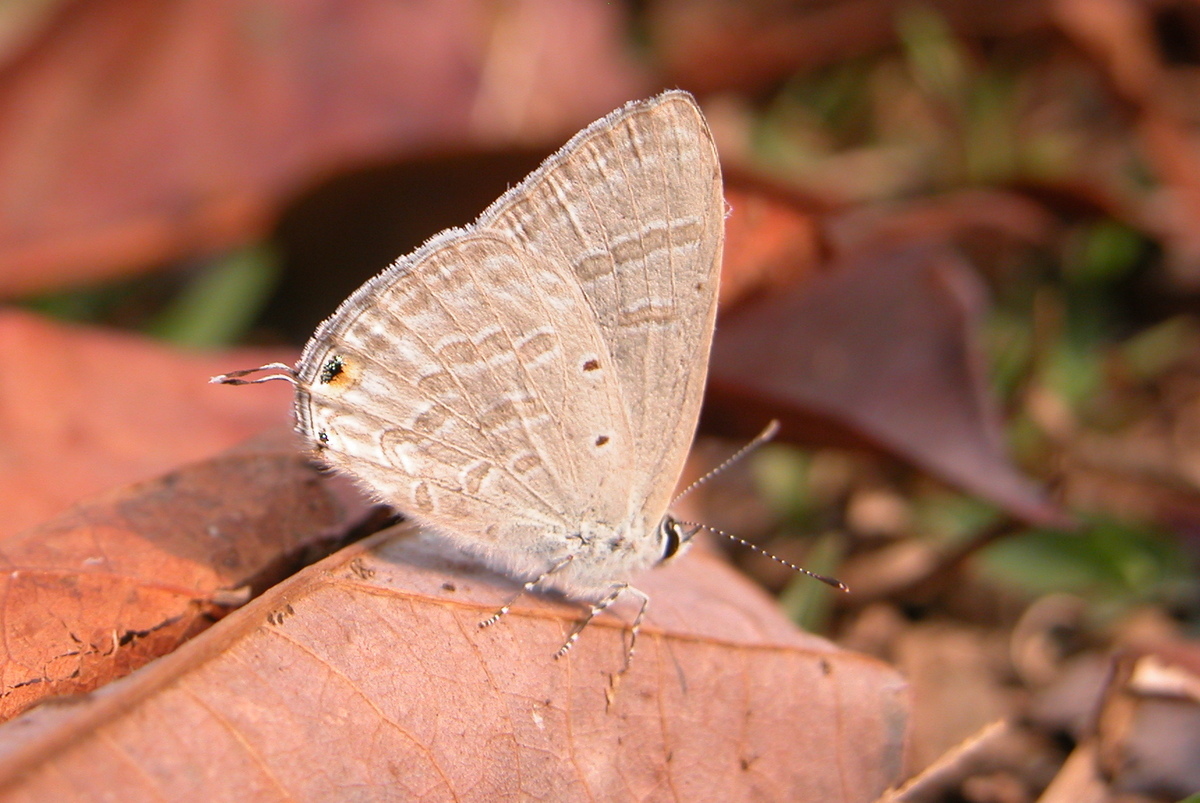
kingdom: Animalia
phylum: Arthropoda
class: Insecta
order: Lepidoptera
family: Lycaenidae
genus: Catochrysops
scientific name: Catochrysops strabo
